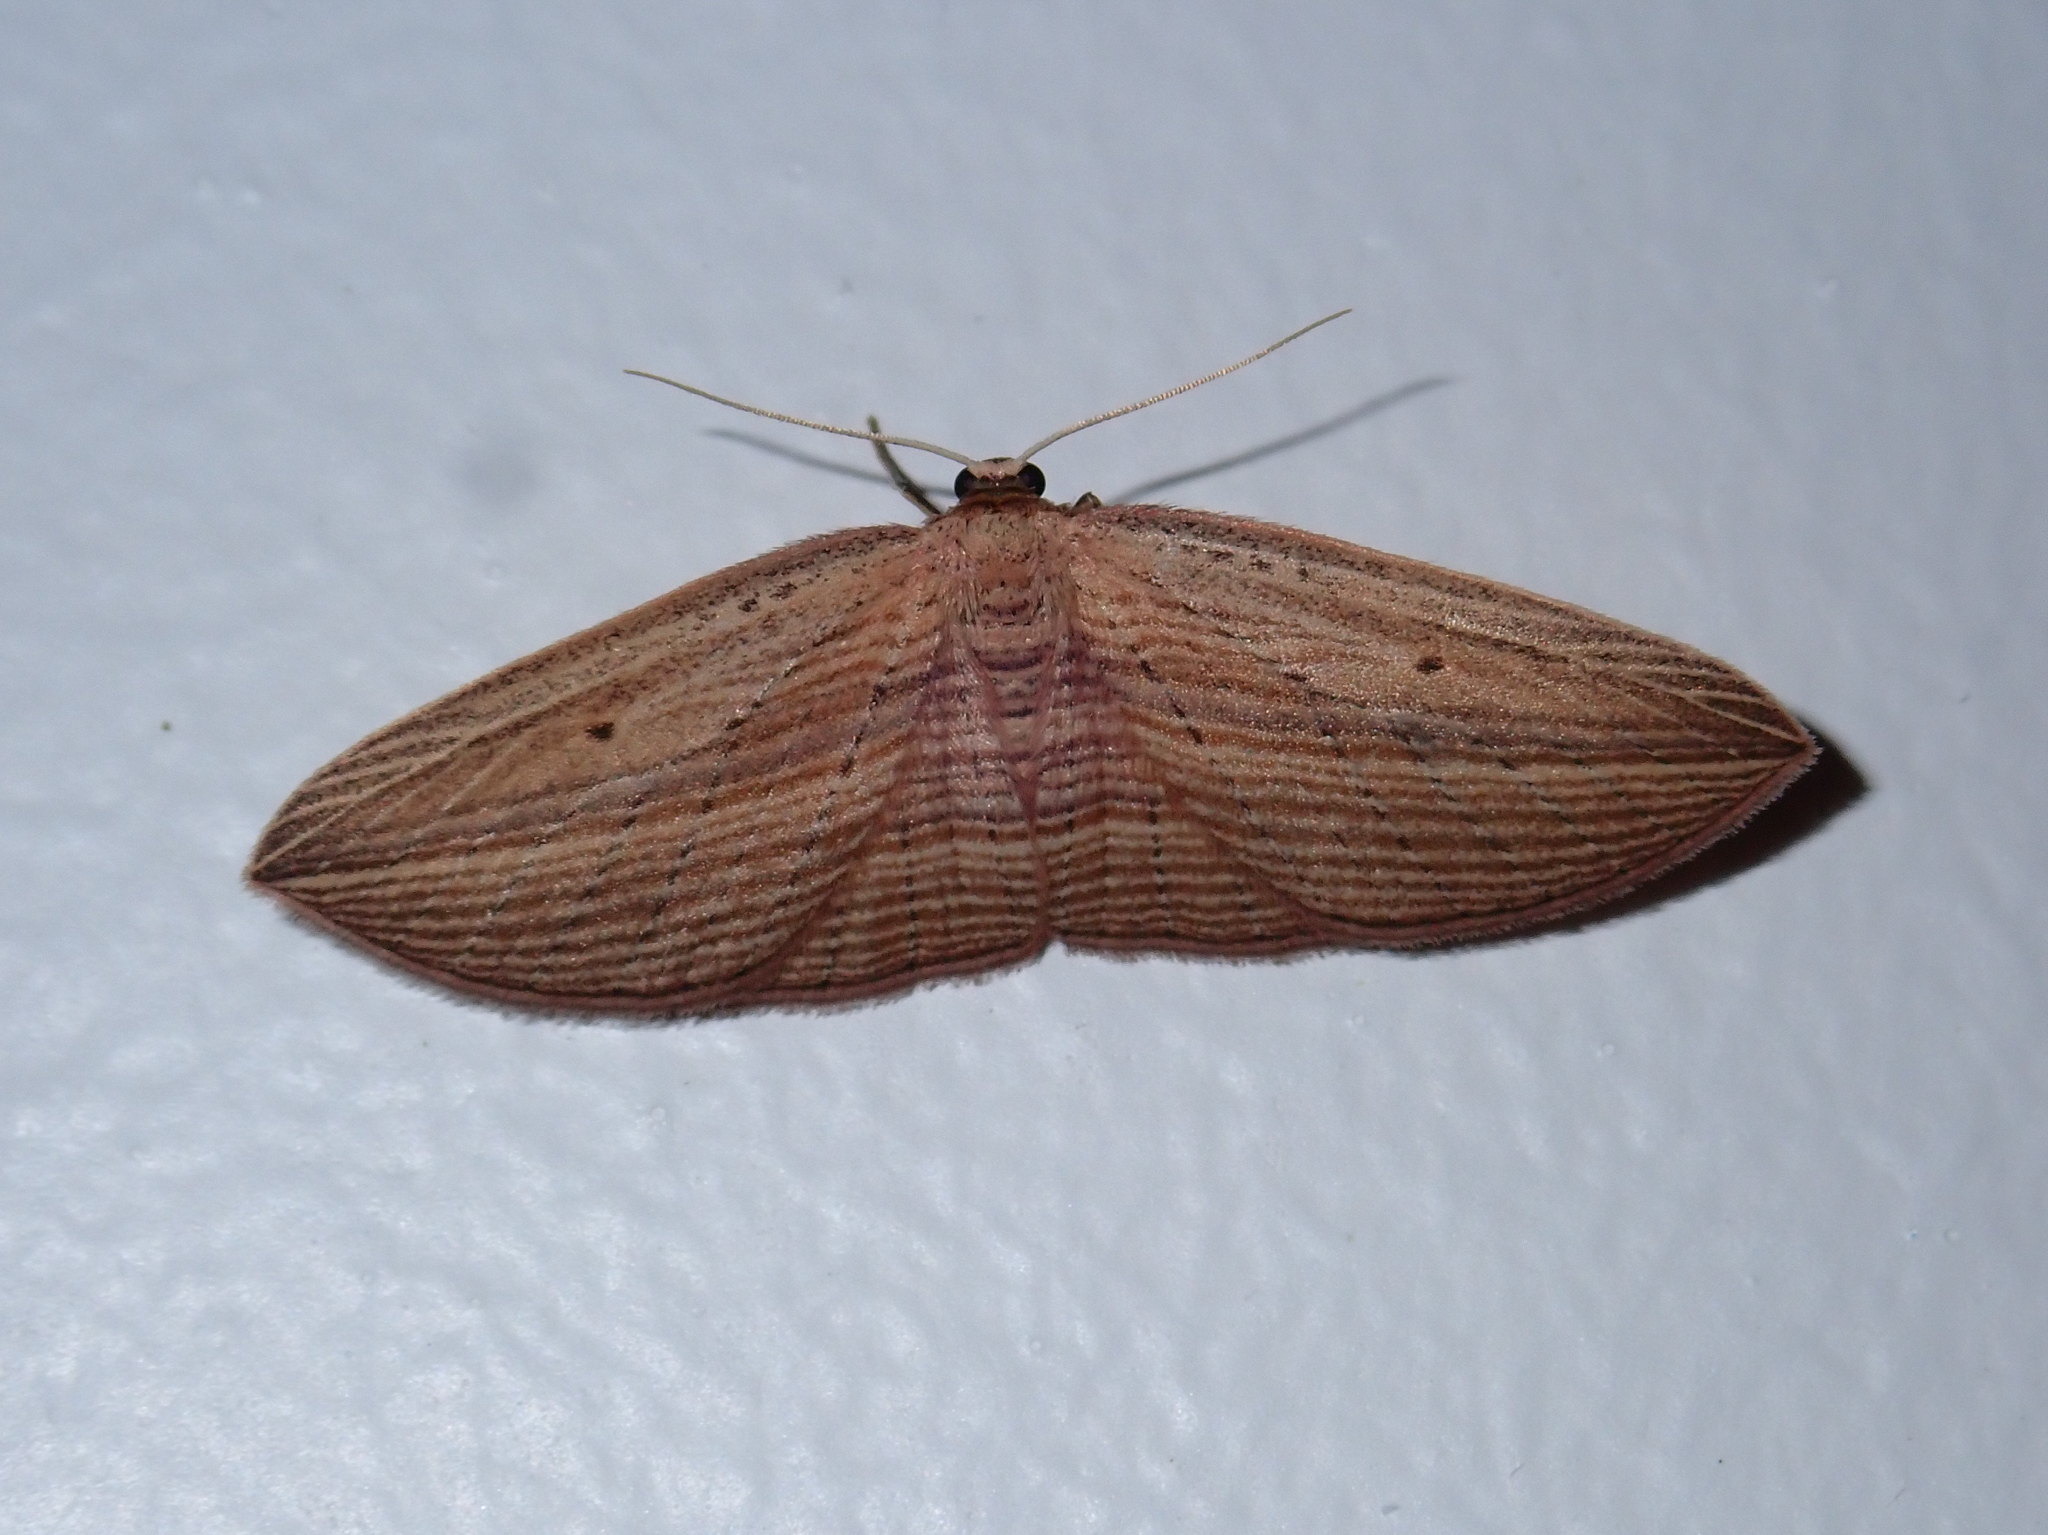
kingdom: Animalia
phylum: Arthropoda
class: Insecta
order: Lepidoptera
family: Geometridae
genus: Epiphryne
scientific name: Epiphryne verriculata
